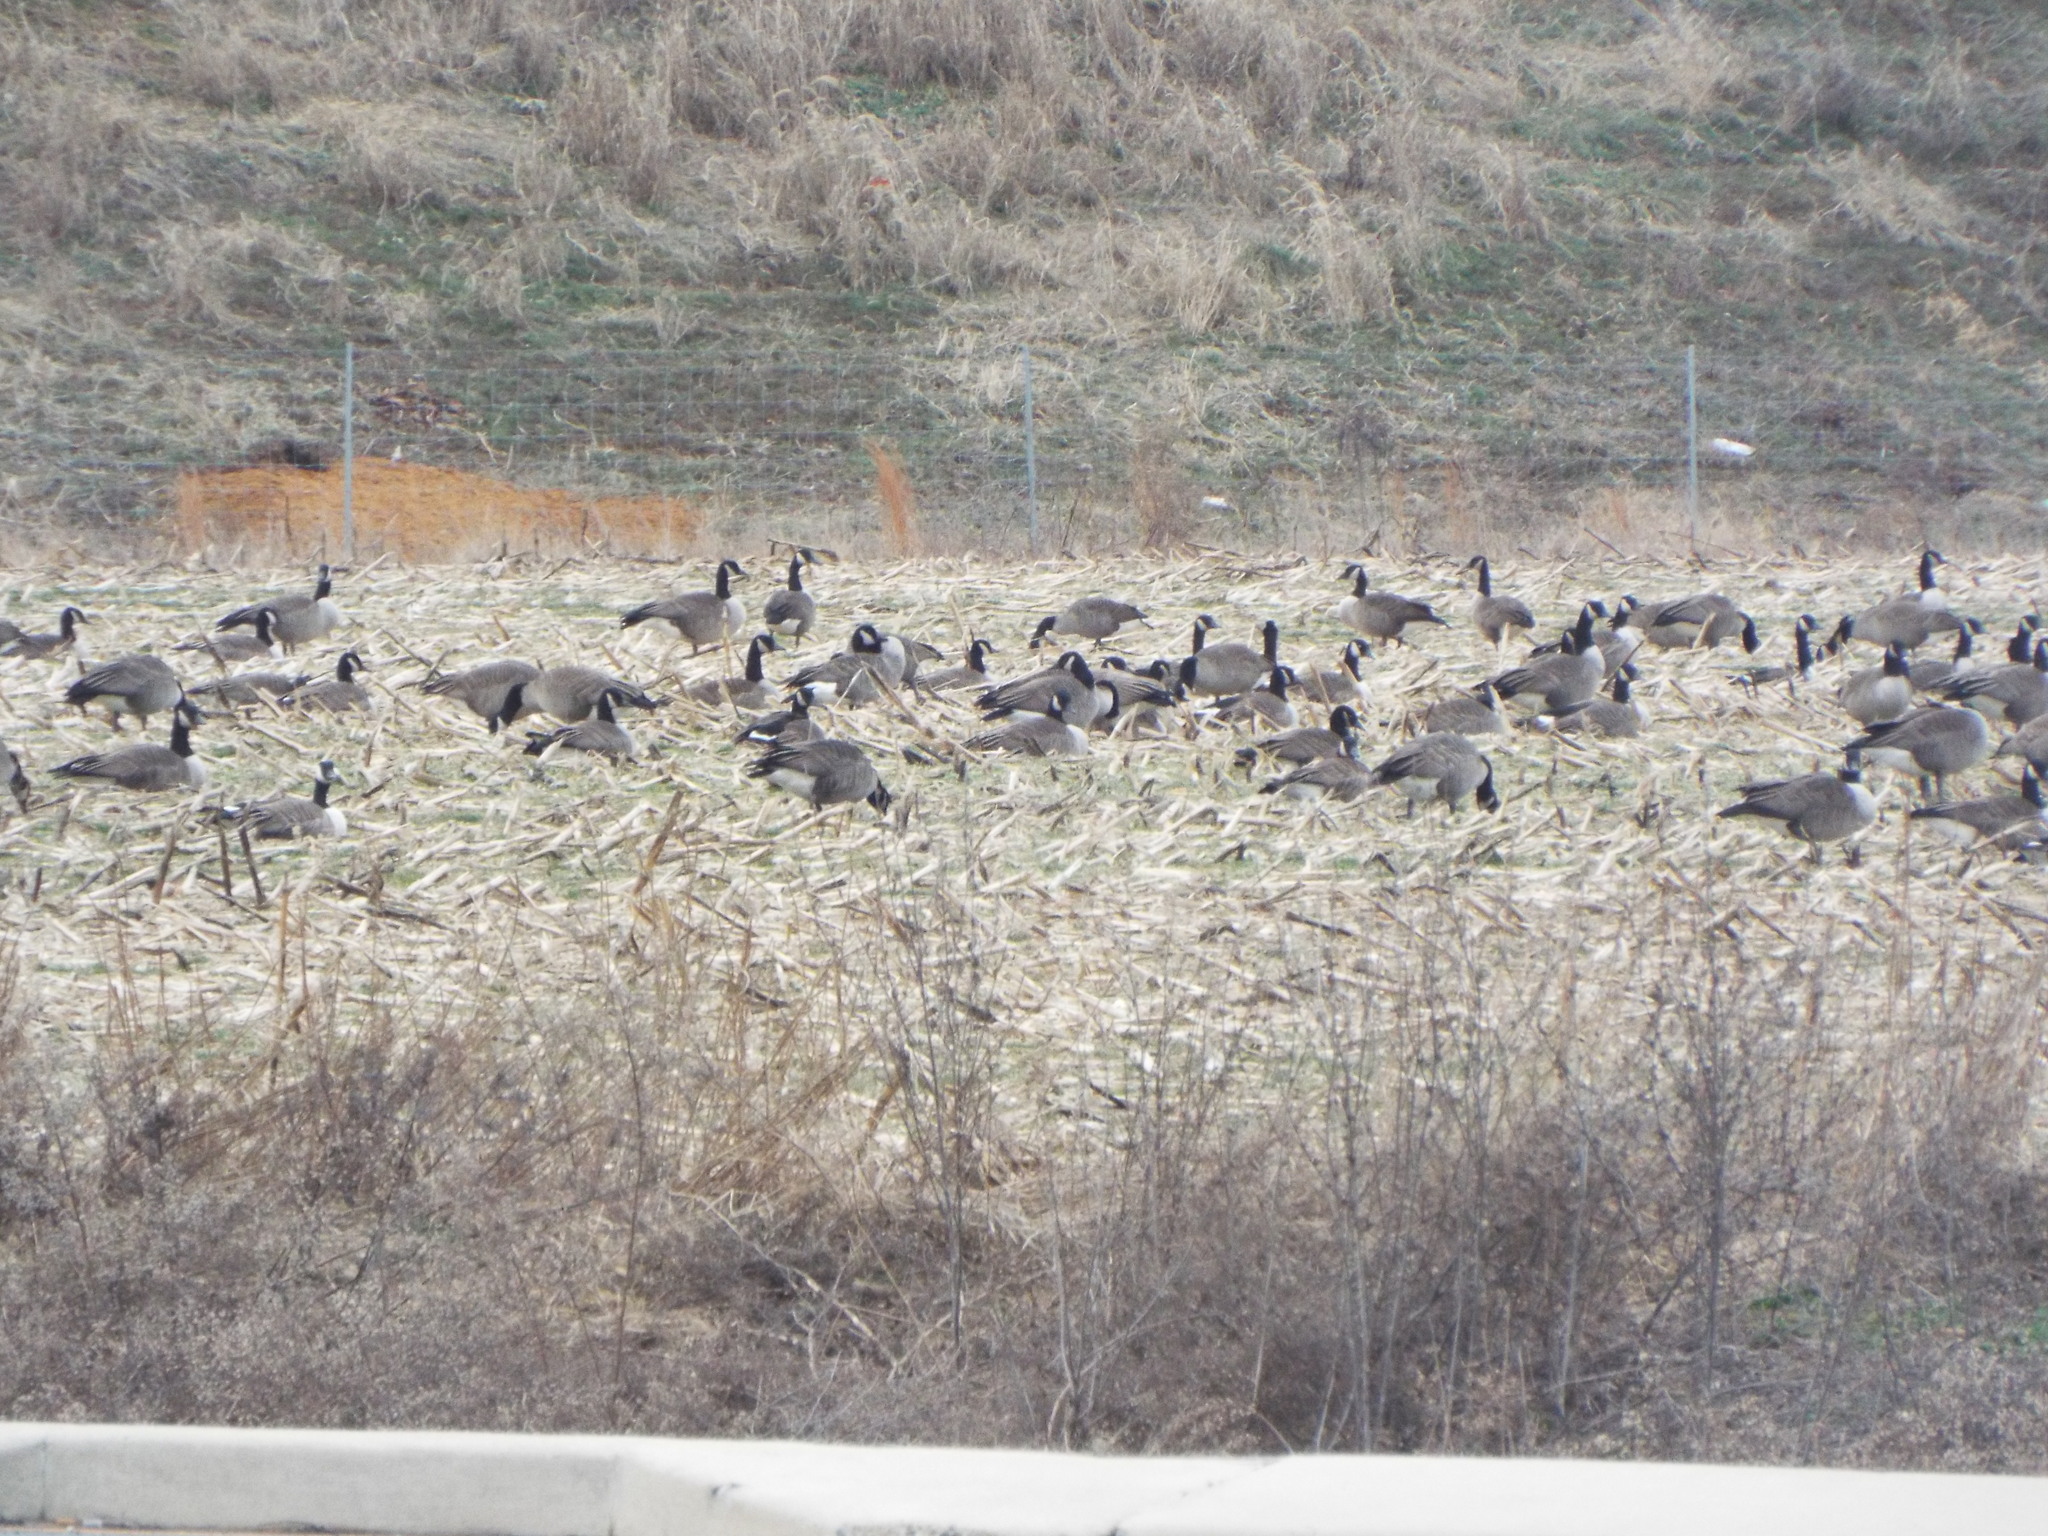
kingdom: Animalia
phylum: Chordata
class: Aves
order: Anseriformes
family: Anatidae
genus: Branta
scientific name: Branta canadensis
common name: Canada goose
